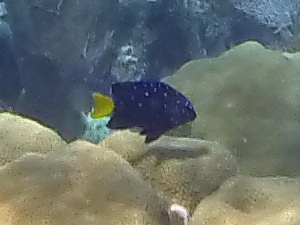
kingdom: Animalia
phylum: Chordata
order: Perciformes
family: Pomacentridae
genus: Microspathodon
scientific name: Microspathodon chrysurus
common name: Yellowtail damselfish
